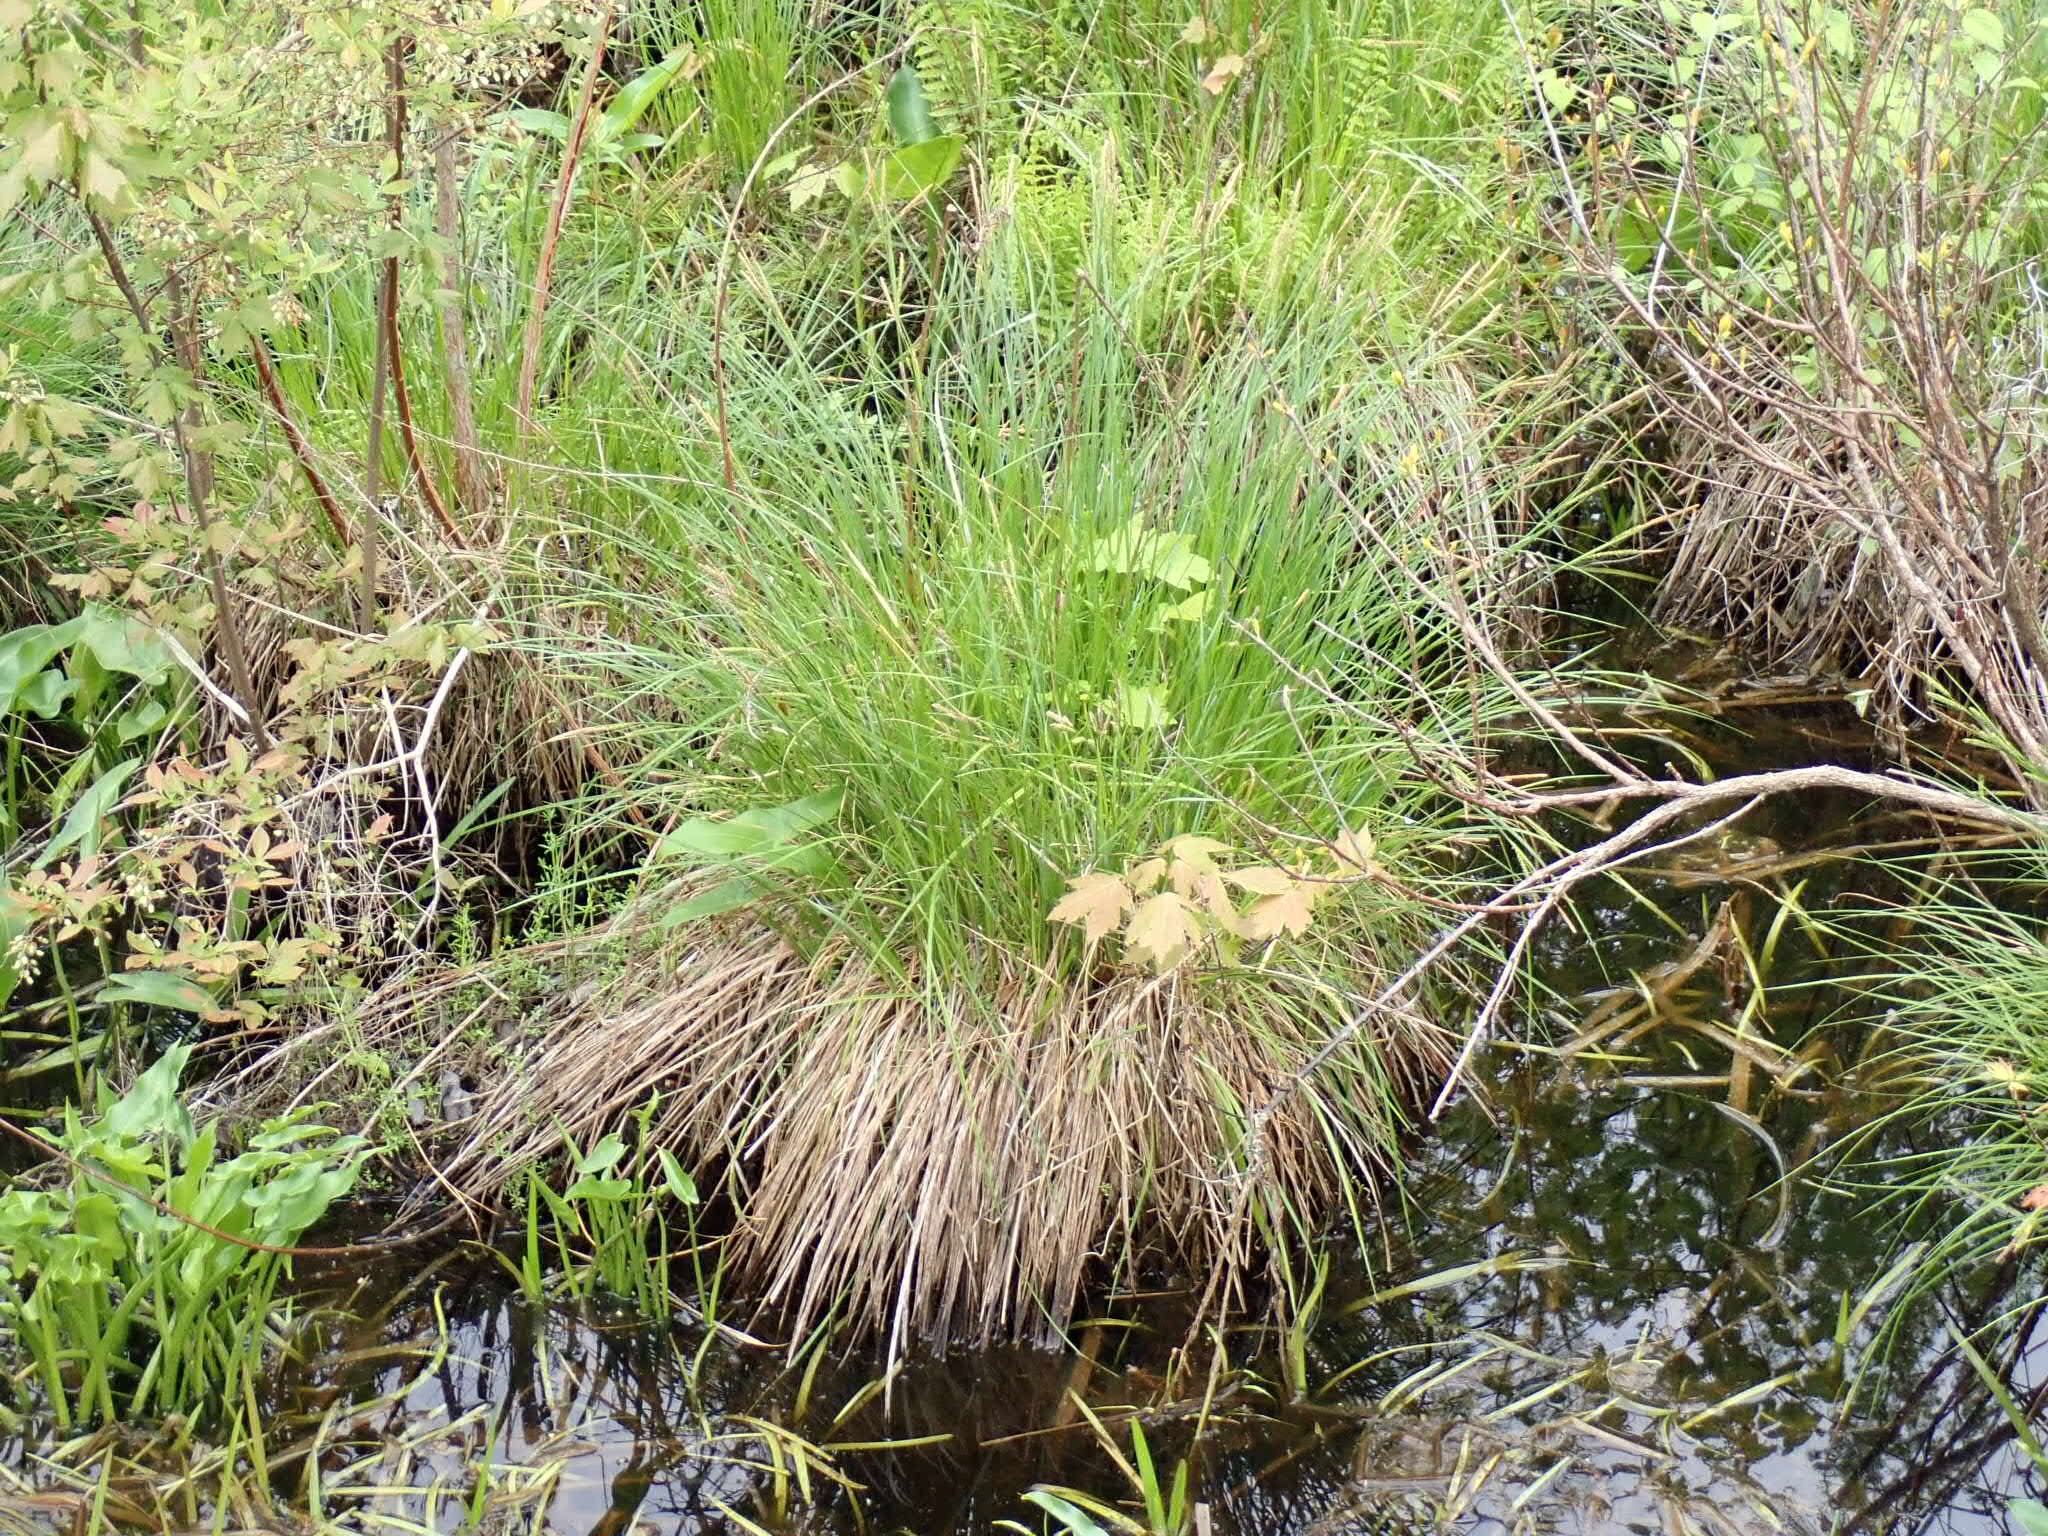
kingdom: Plantae
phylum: Tracheophyta
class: Liliopsida
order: Poales
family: Cyperaceae
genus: Carex
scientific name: Carex stricta
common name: Hummock sedge
